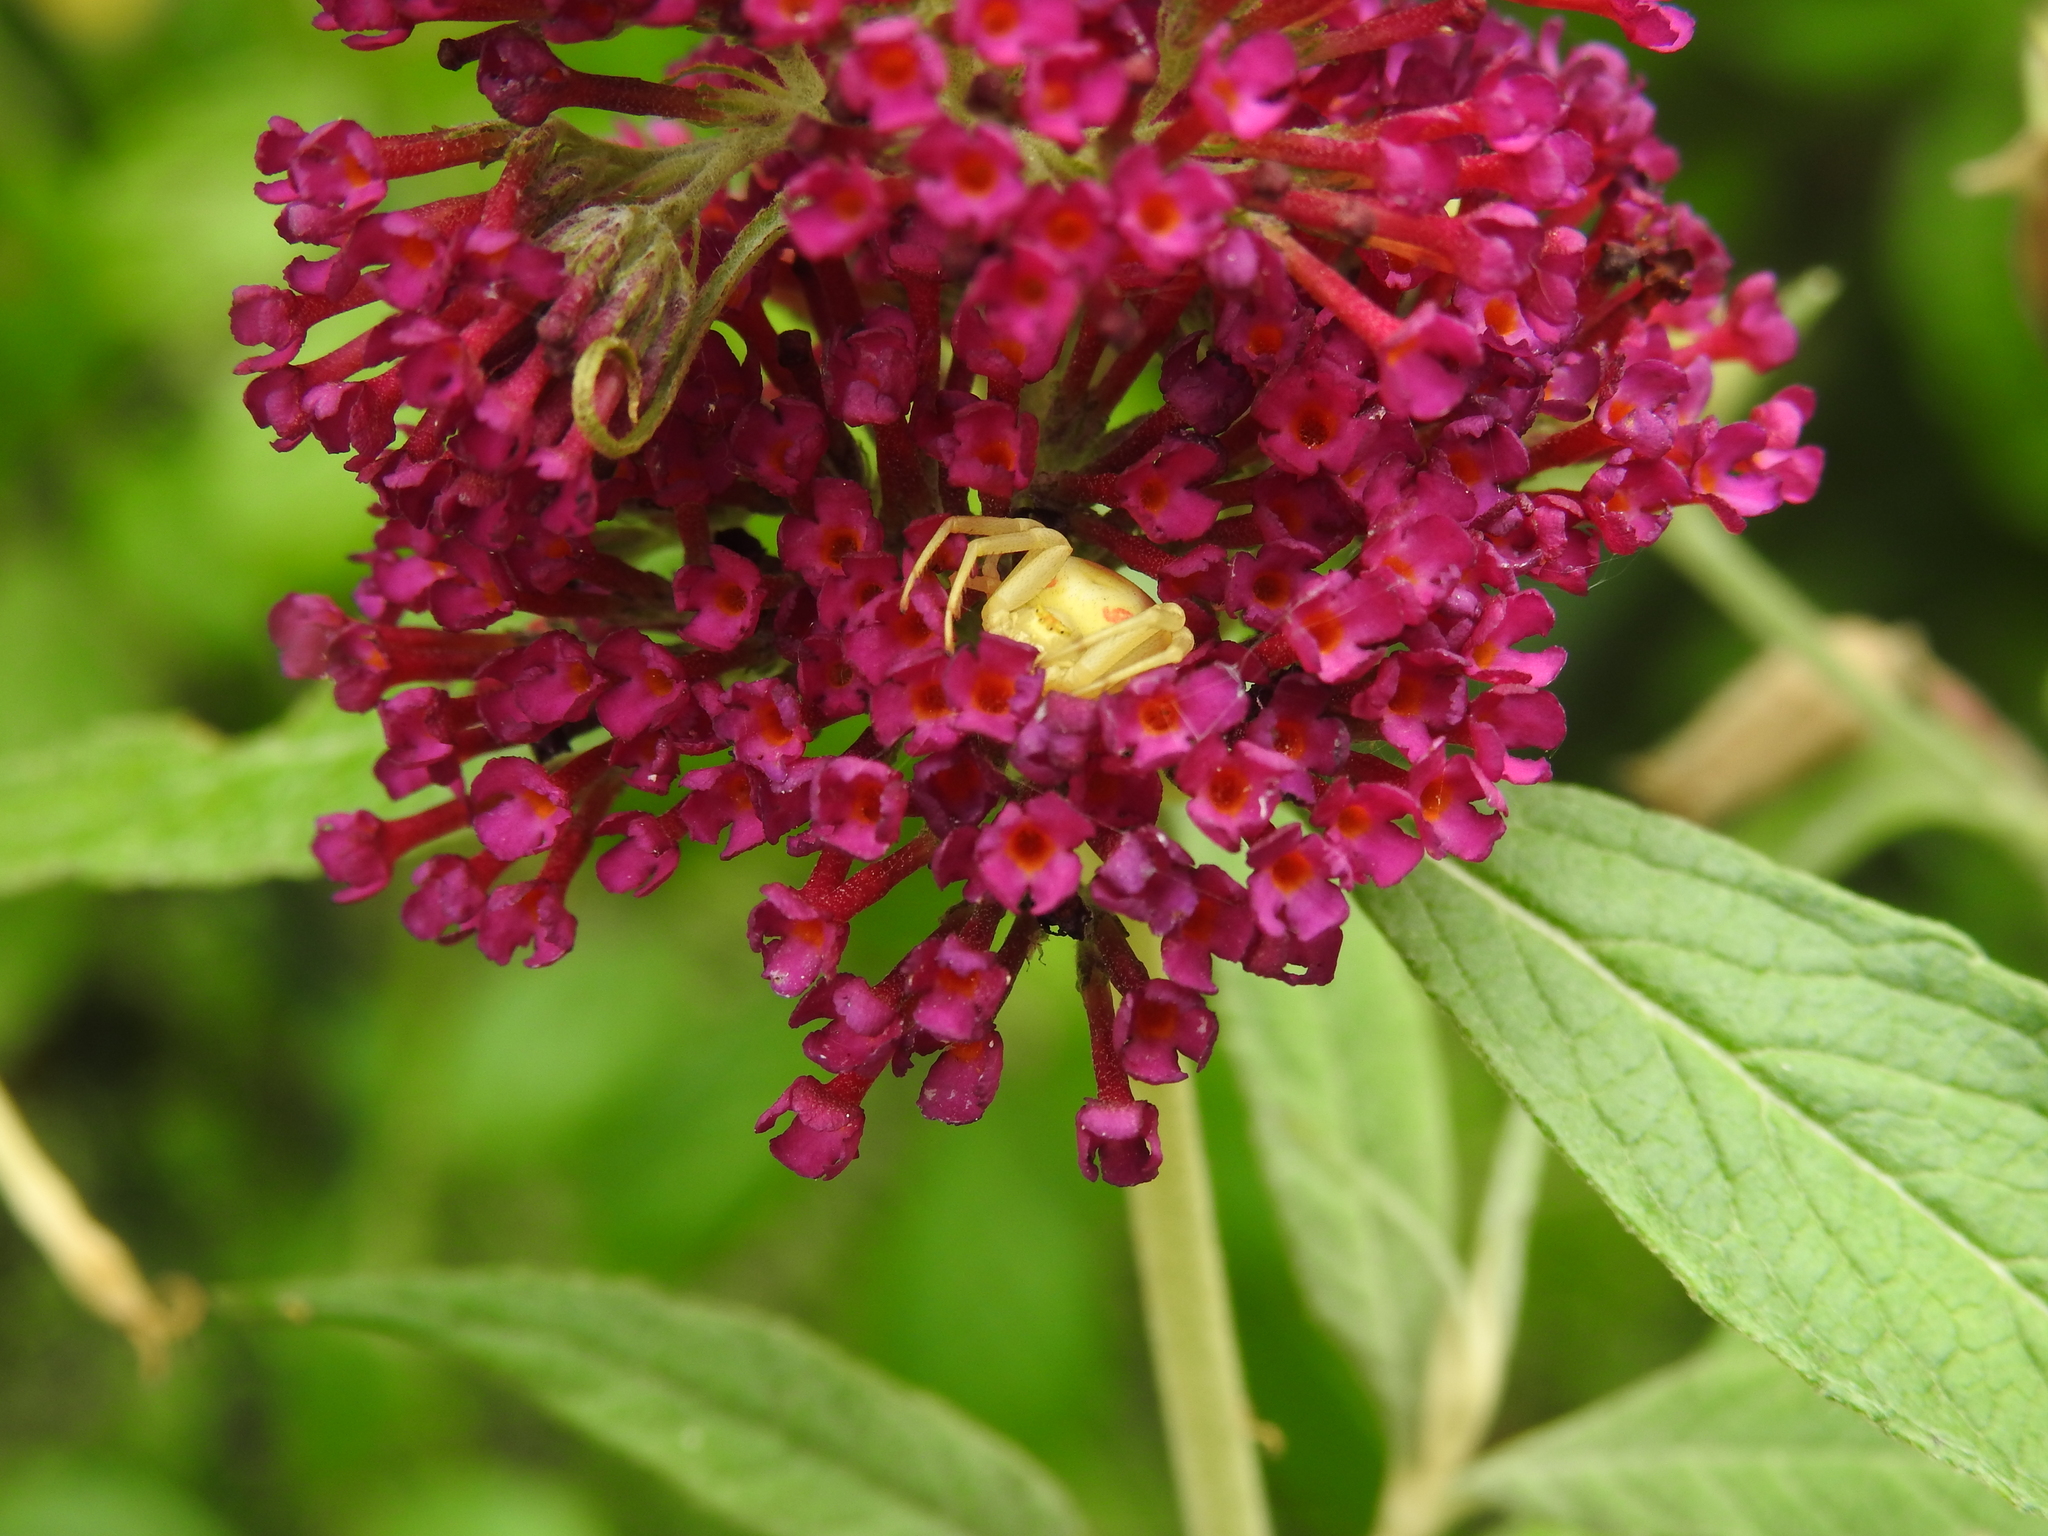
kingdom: Animalia
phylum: Arthropoda
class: Arachnida
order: Araneae
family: Thomisidae
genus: Misumena
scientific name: Misumena vatia
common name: Goldenrod crab spider
